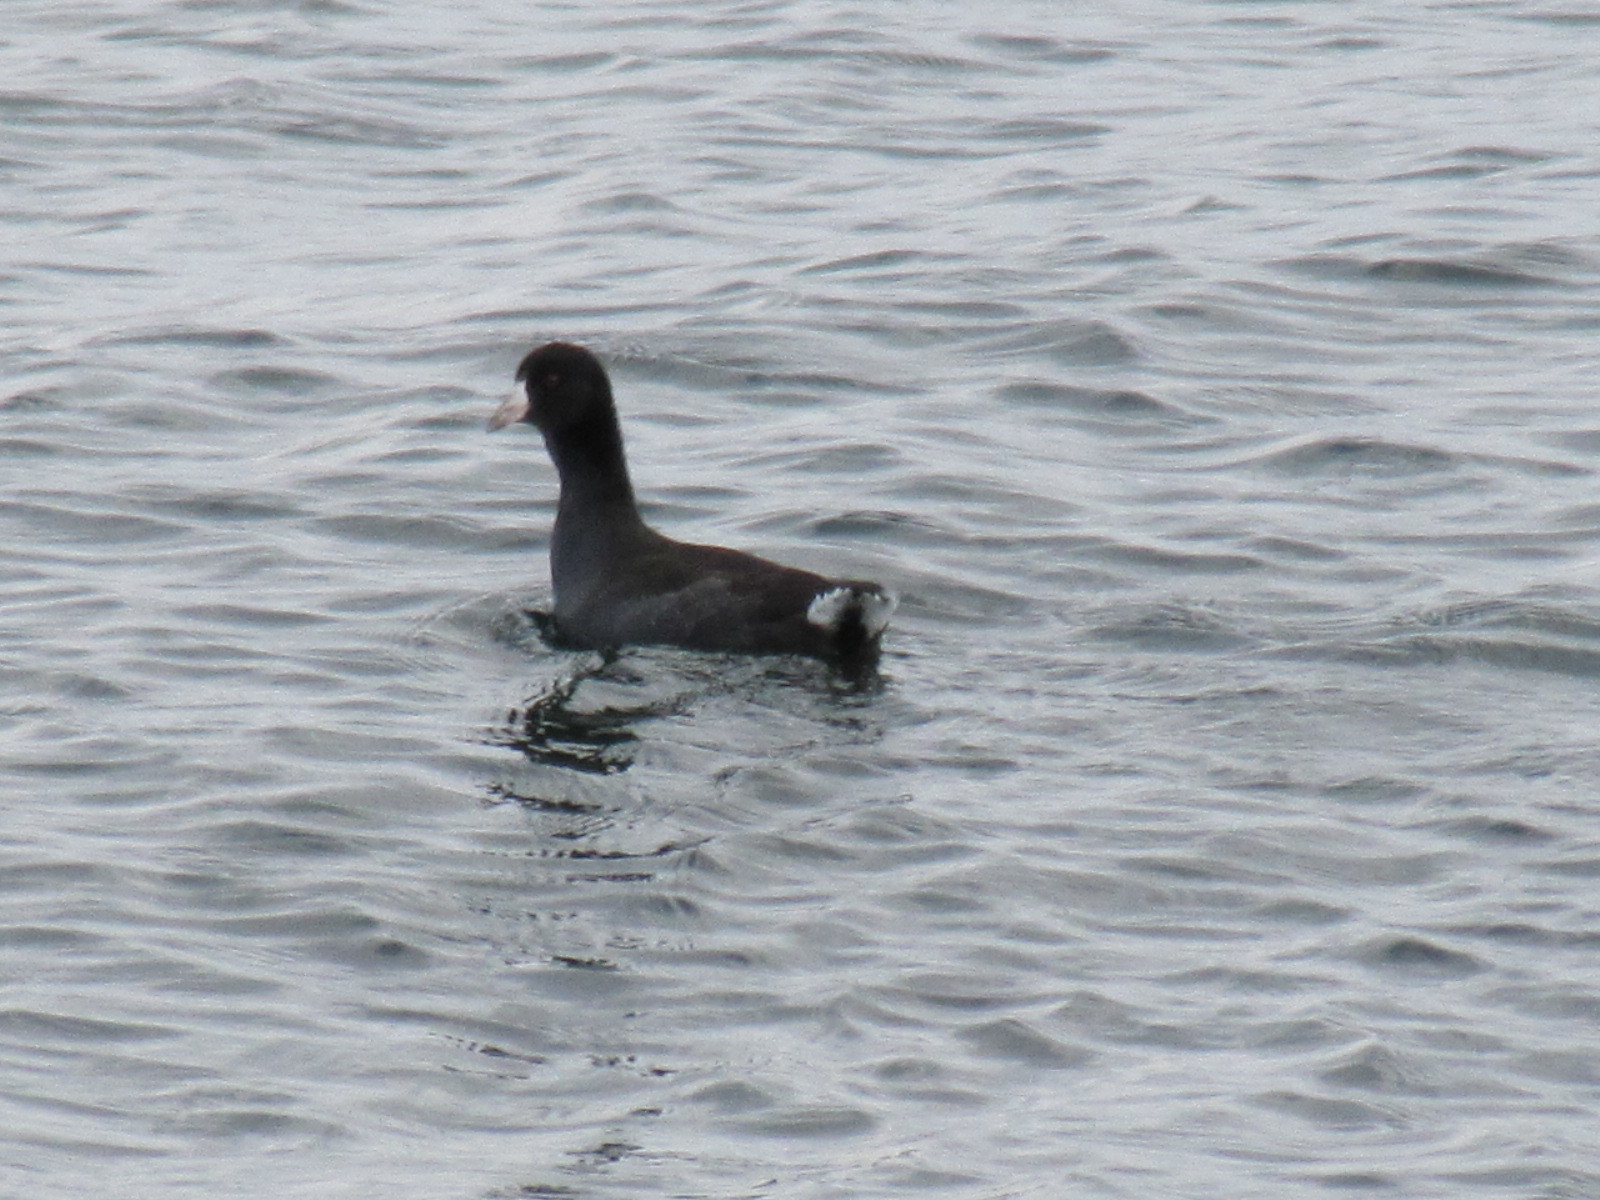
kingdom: Animalia
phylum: Chordata
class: Aves
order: Gruiformes
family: Rallidae
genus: Fulica
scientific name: Fulica americana
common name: American coot
